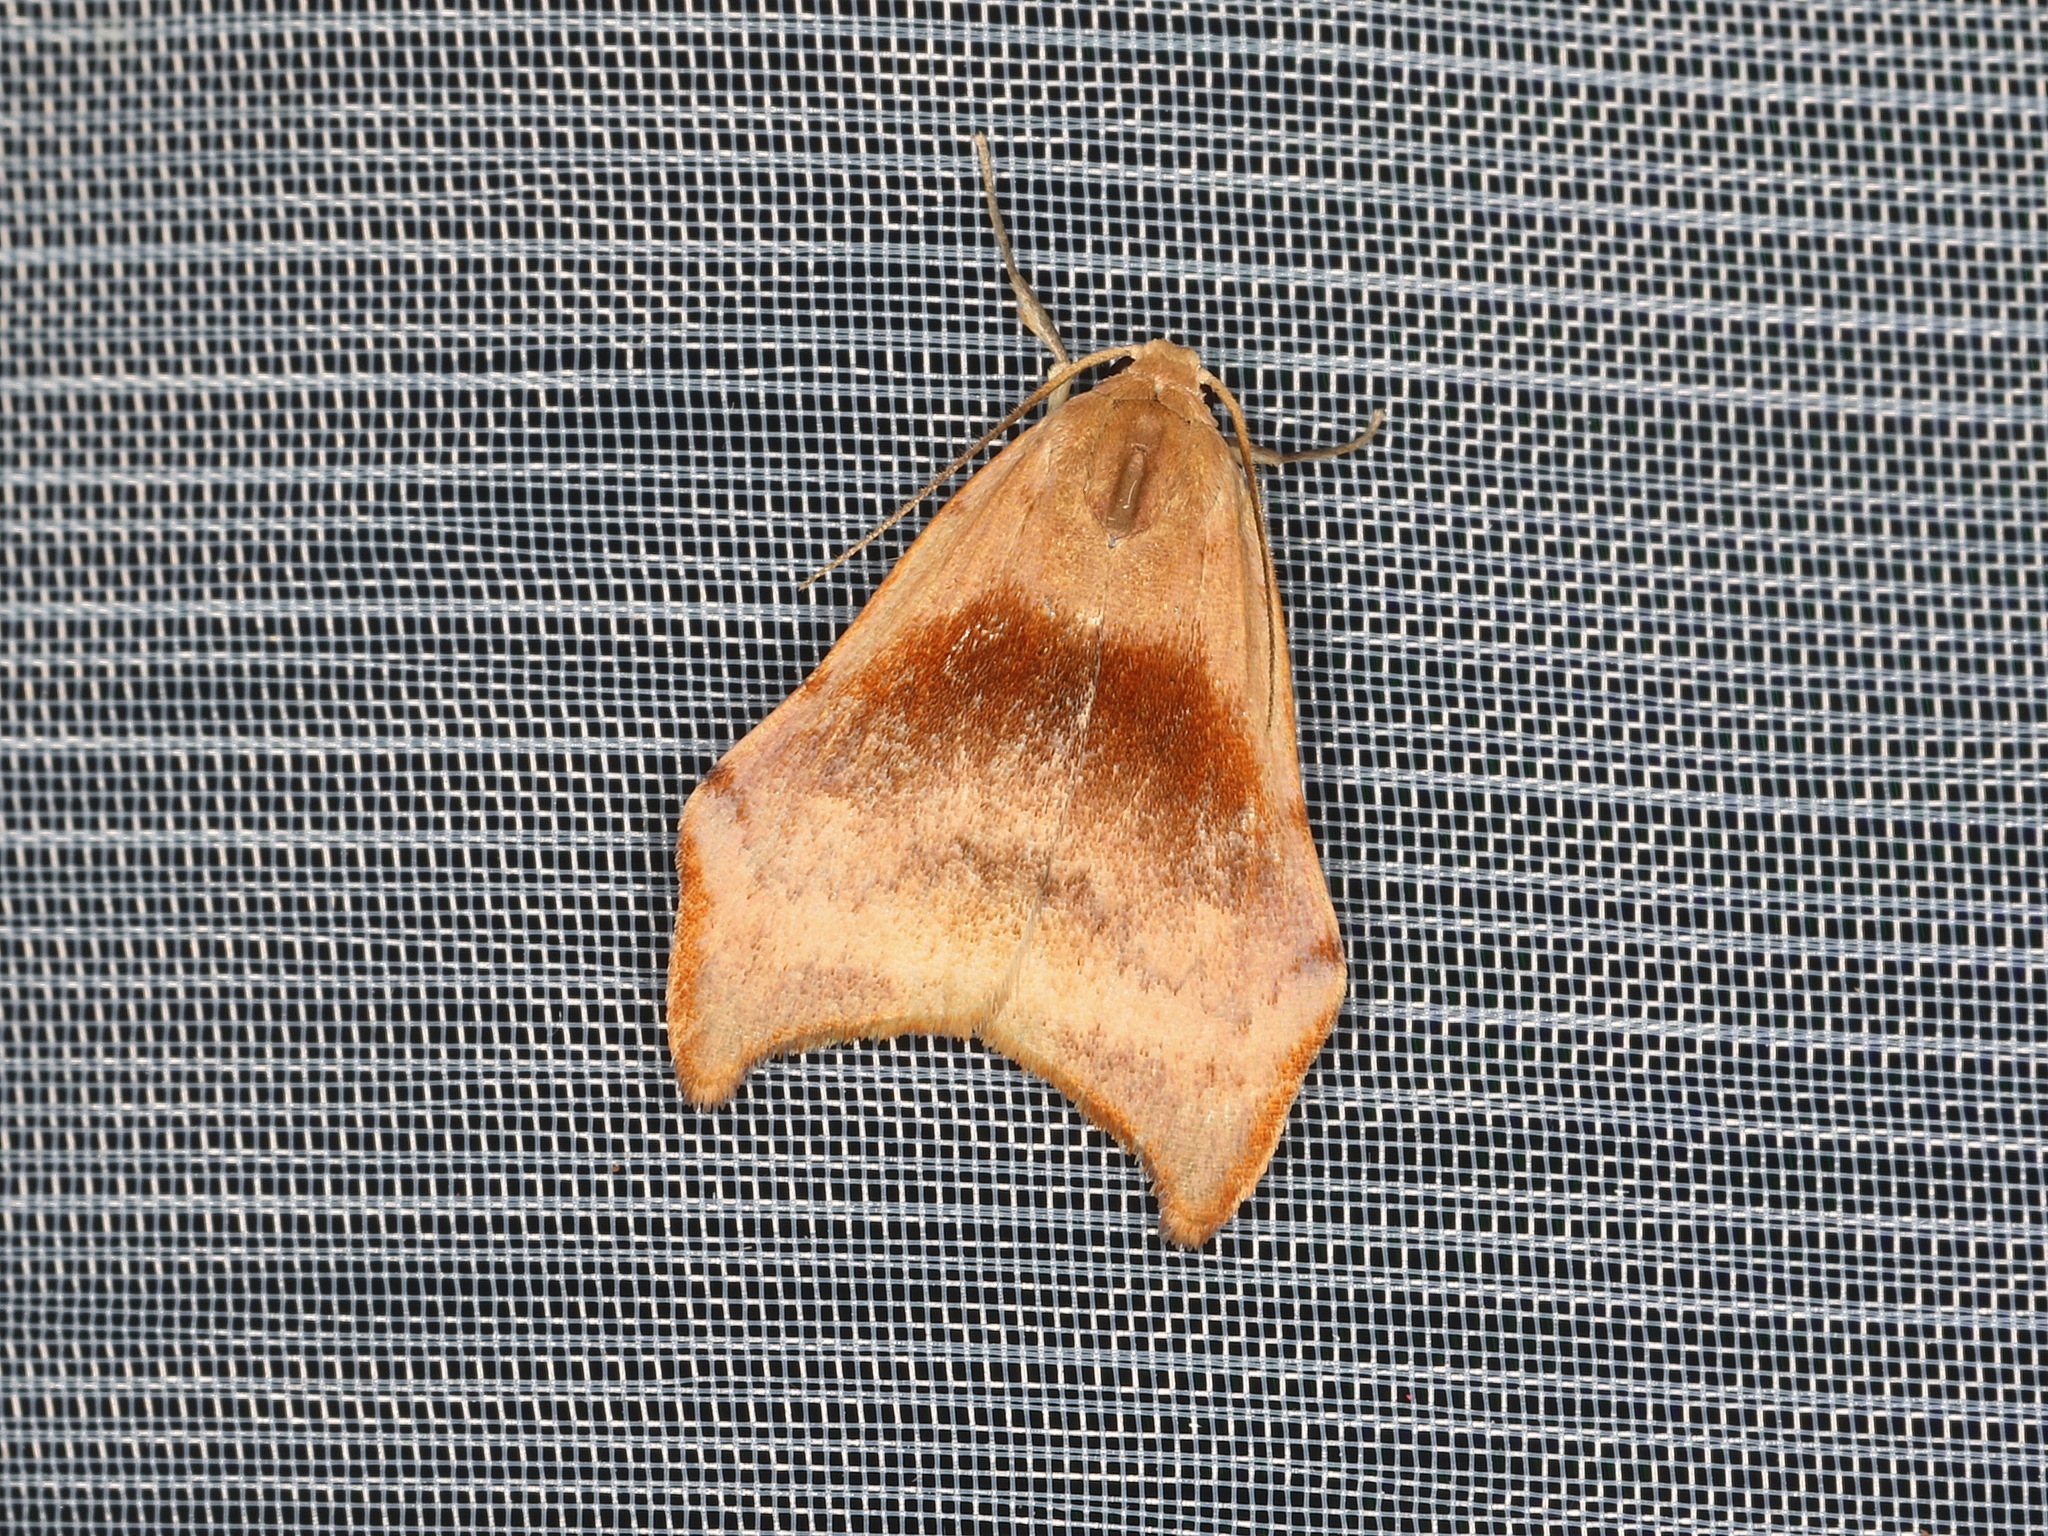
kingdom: Animalia
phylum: Arthropoda
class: Insecta
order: Lepidoptera
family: Erebidae
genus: Macaduma
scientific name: Macaduma strongyla
